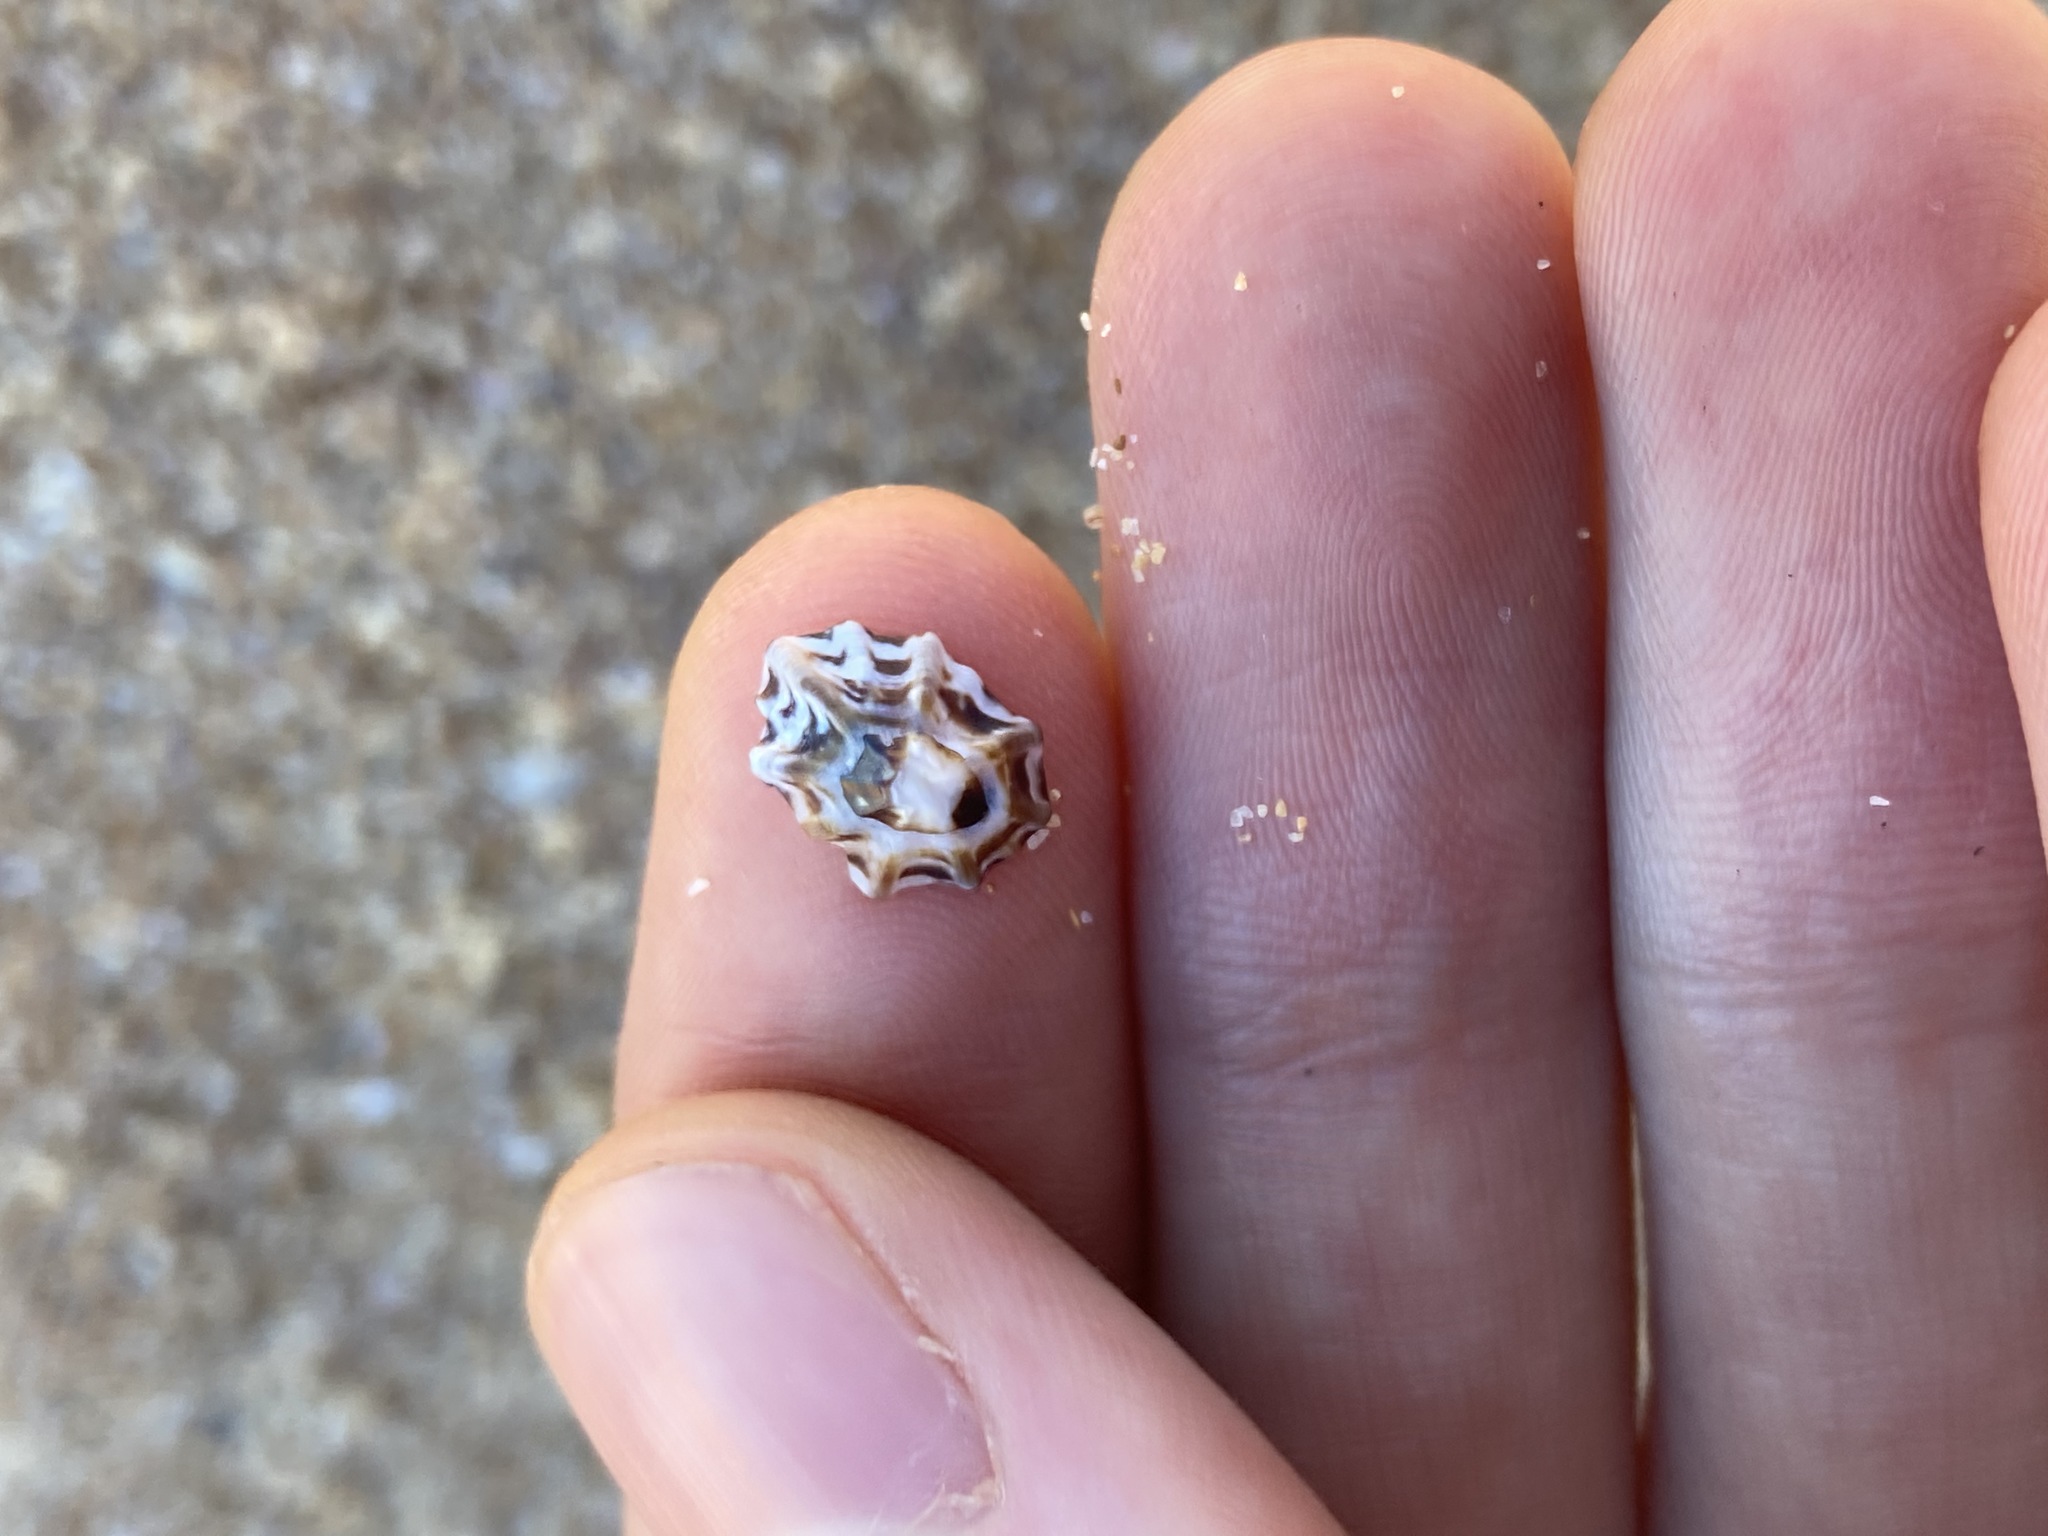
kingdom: Animalia
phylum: Mollusca
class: Gastropoda
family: Lottiidae
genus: Patelloida
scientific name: Patelloida alticostata
